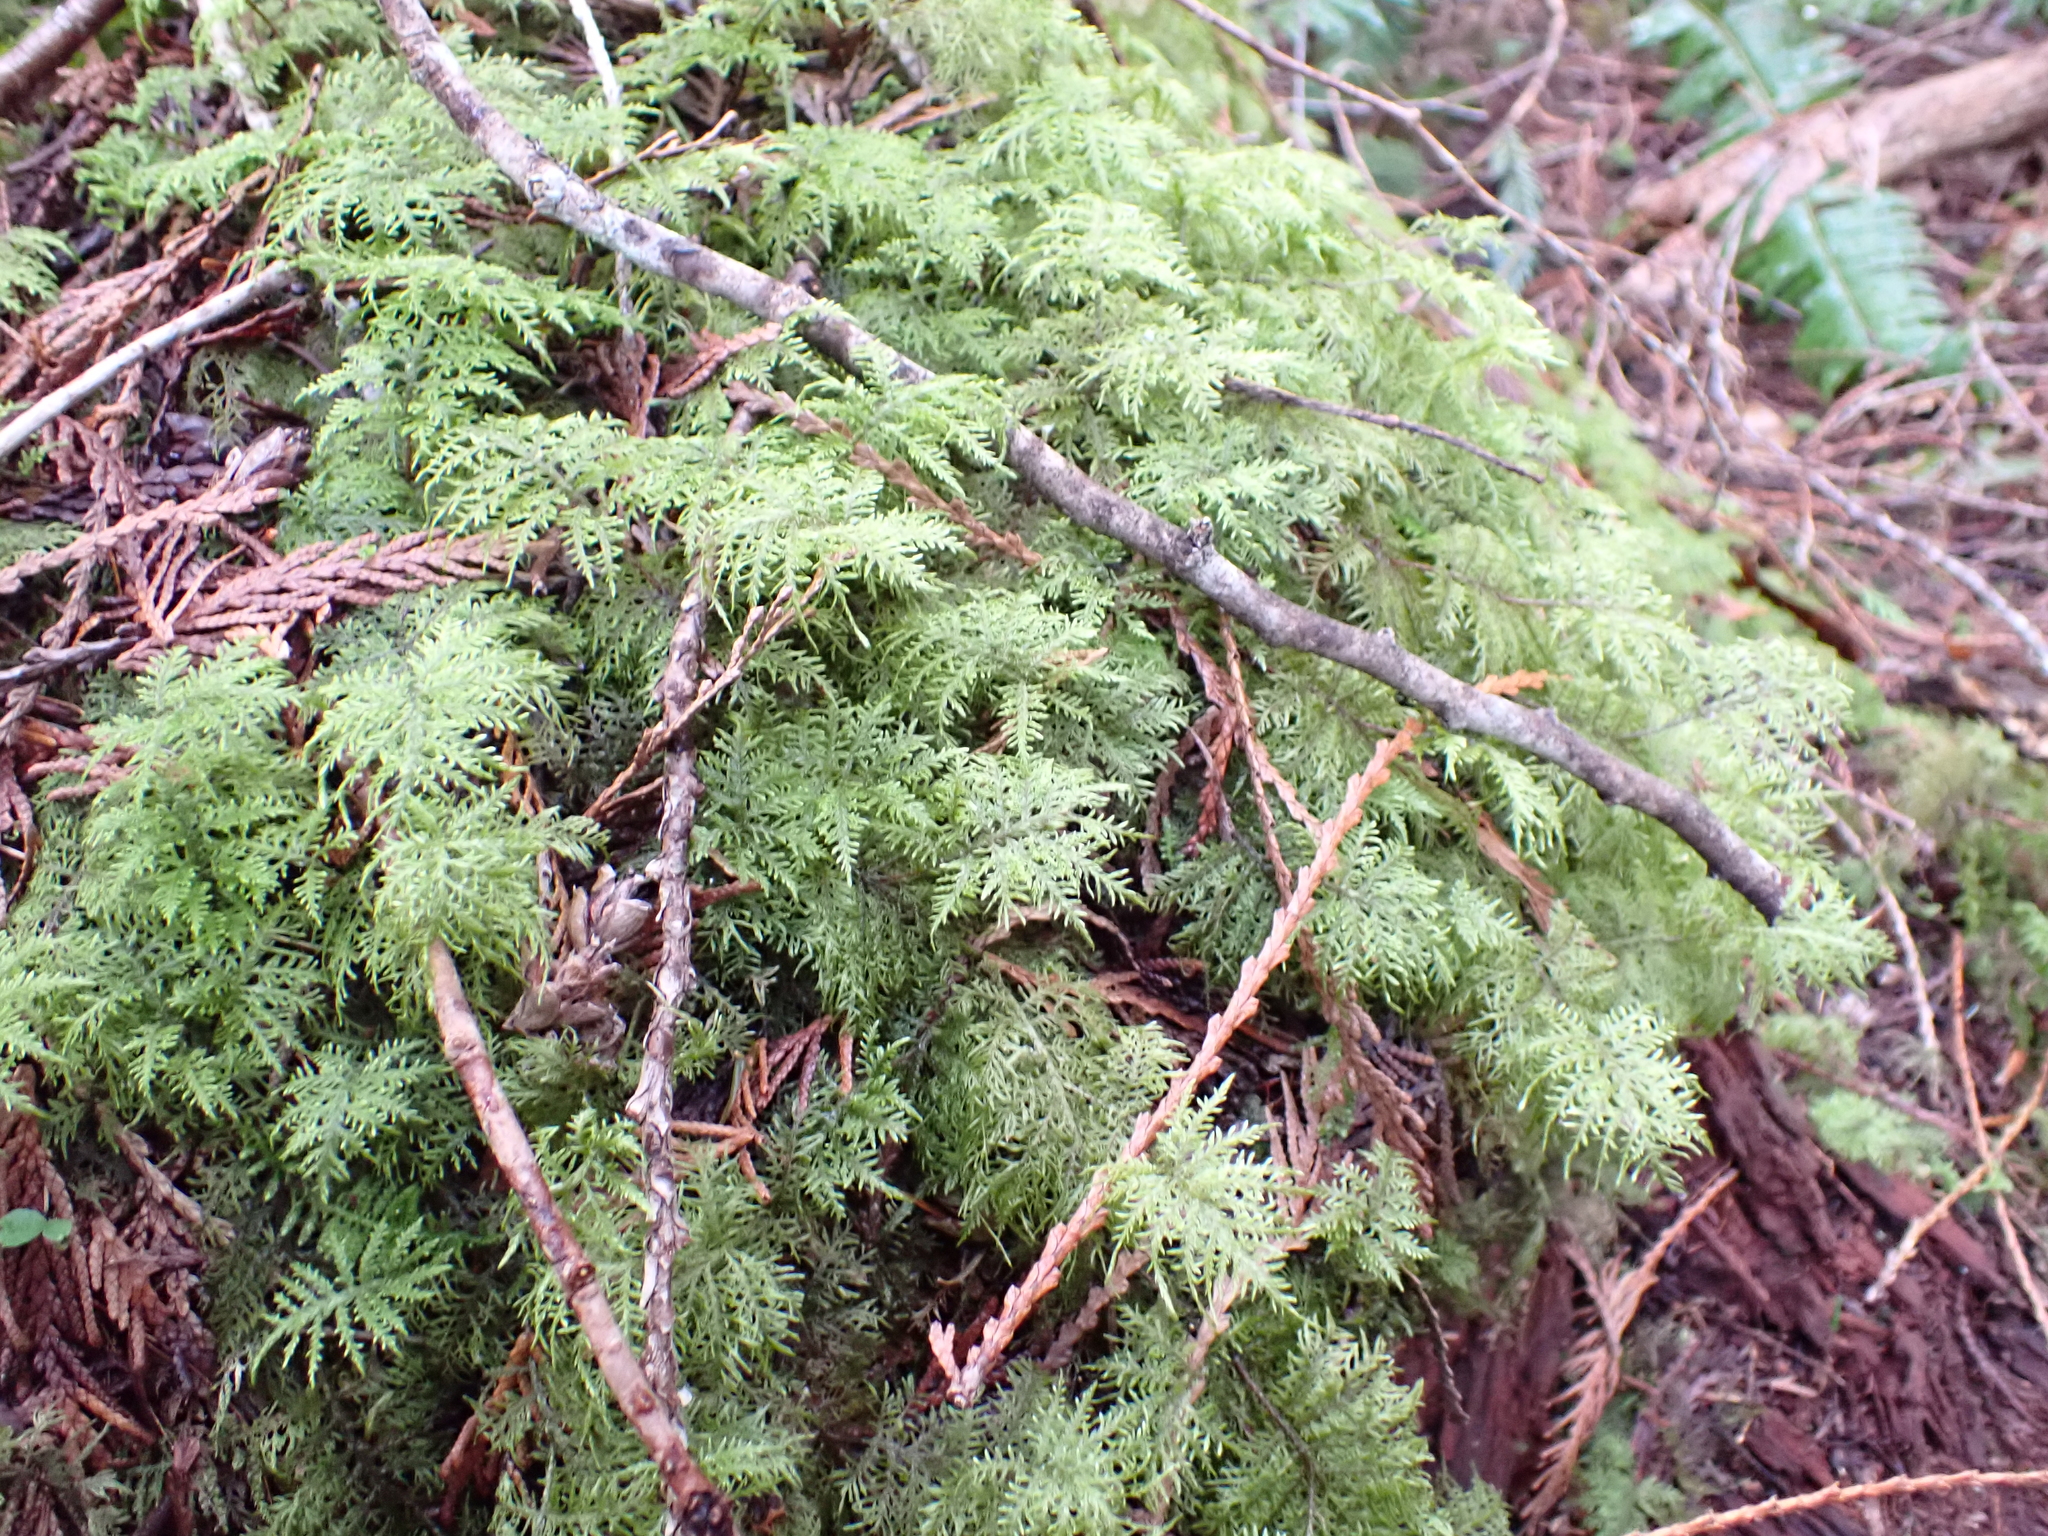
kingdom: Plantae
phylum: Bryophyta
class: Bryopsida
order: Hypnales
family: Hylocomiaceae
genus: Hylocomium
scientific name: Hylocomium splendens
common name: Stairstep moss
